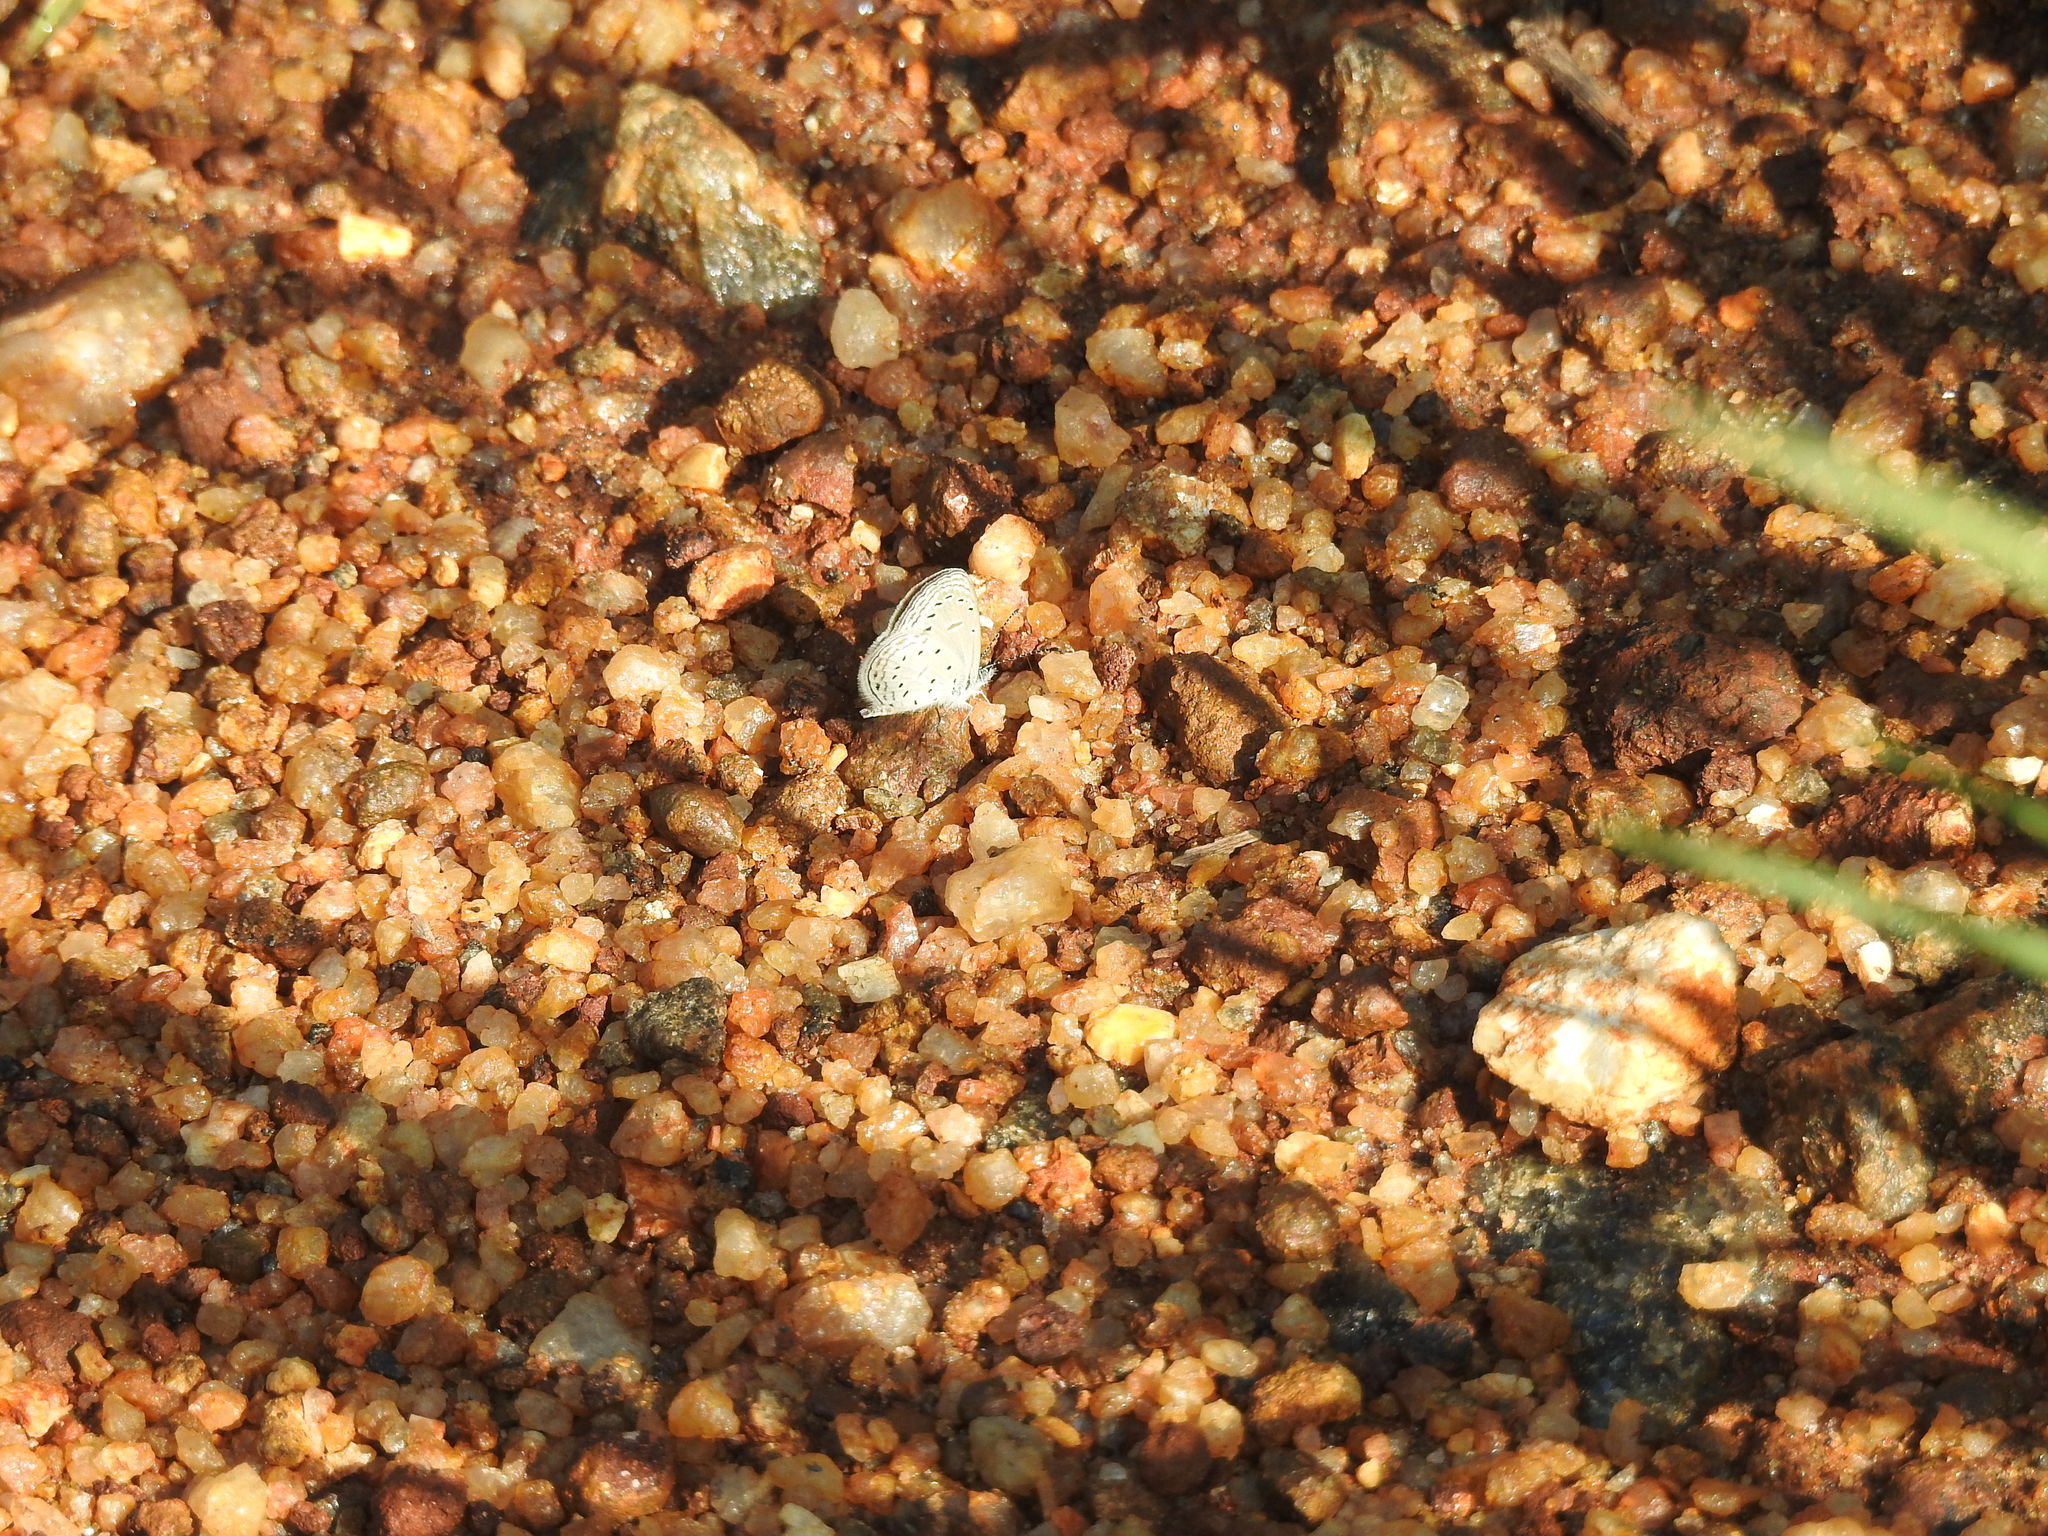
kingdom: Animalia
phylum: Arthropoda
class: Insecta
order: Lepidoptera
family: Lycaenidae
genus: Zizula
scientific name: Zizula hylax
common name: Gaika blue
